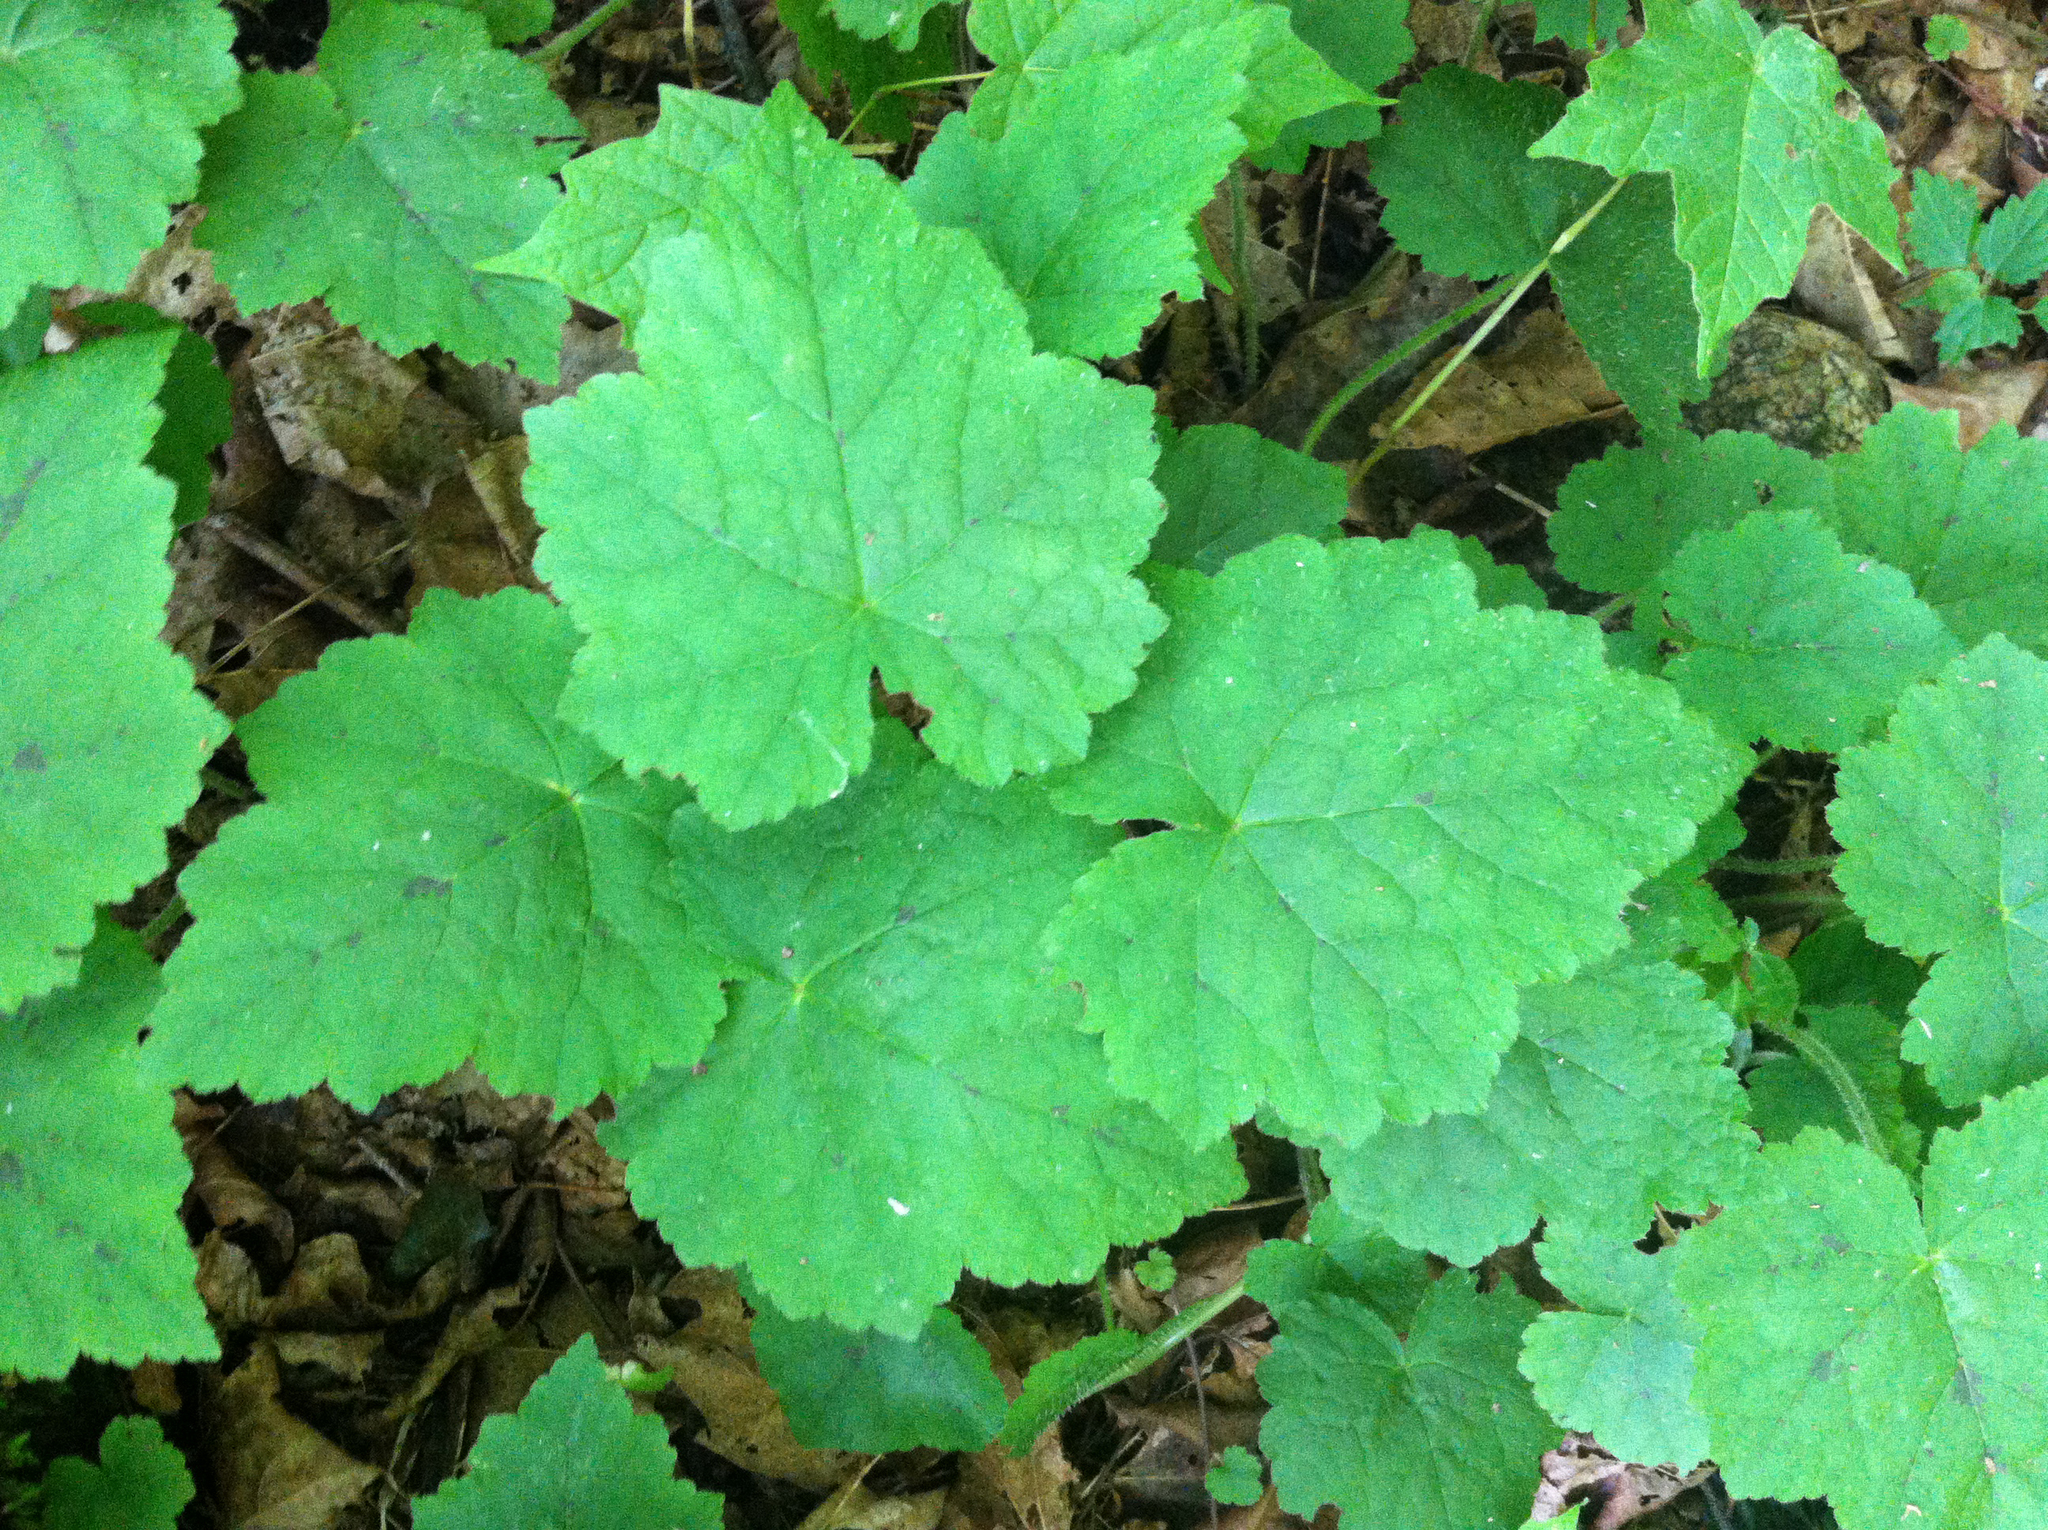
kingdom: Plantae
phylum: Tracheophyta
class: Magnoliopsida
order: Saxifragales
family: Saxifragaceae
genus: Tiarella
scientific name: Tiarella stolonifera
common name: Stoloniferous foamflower
